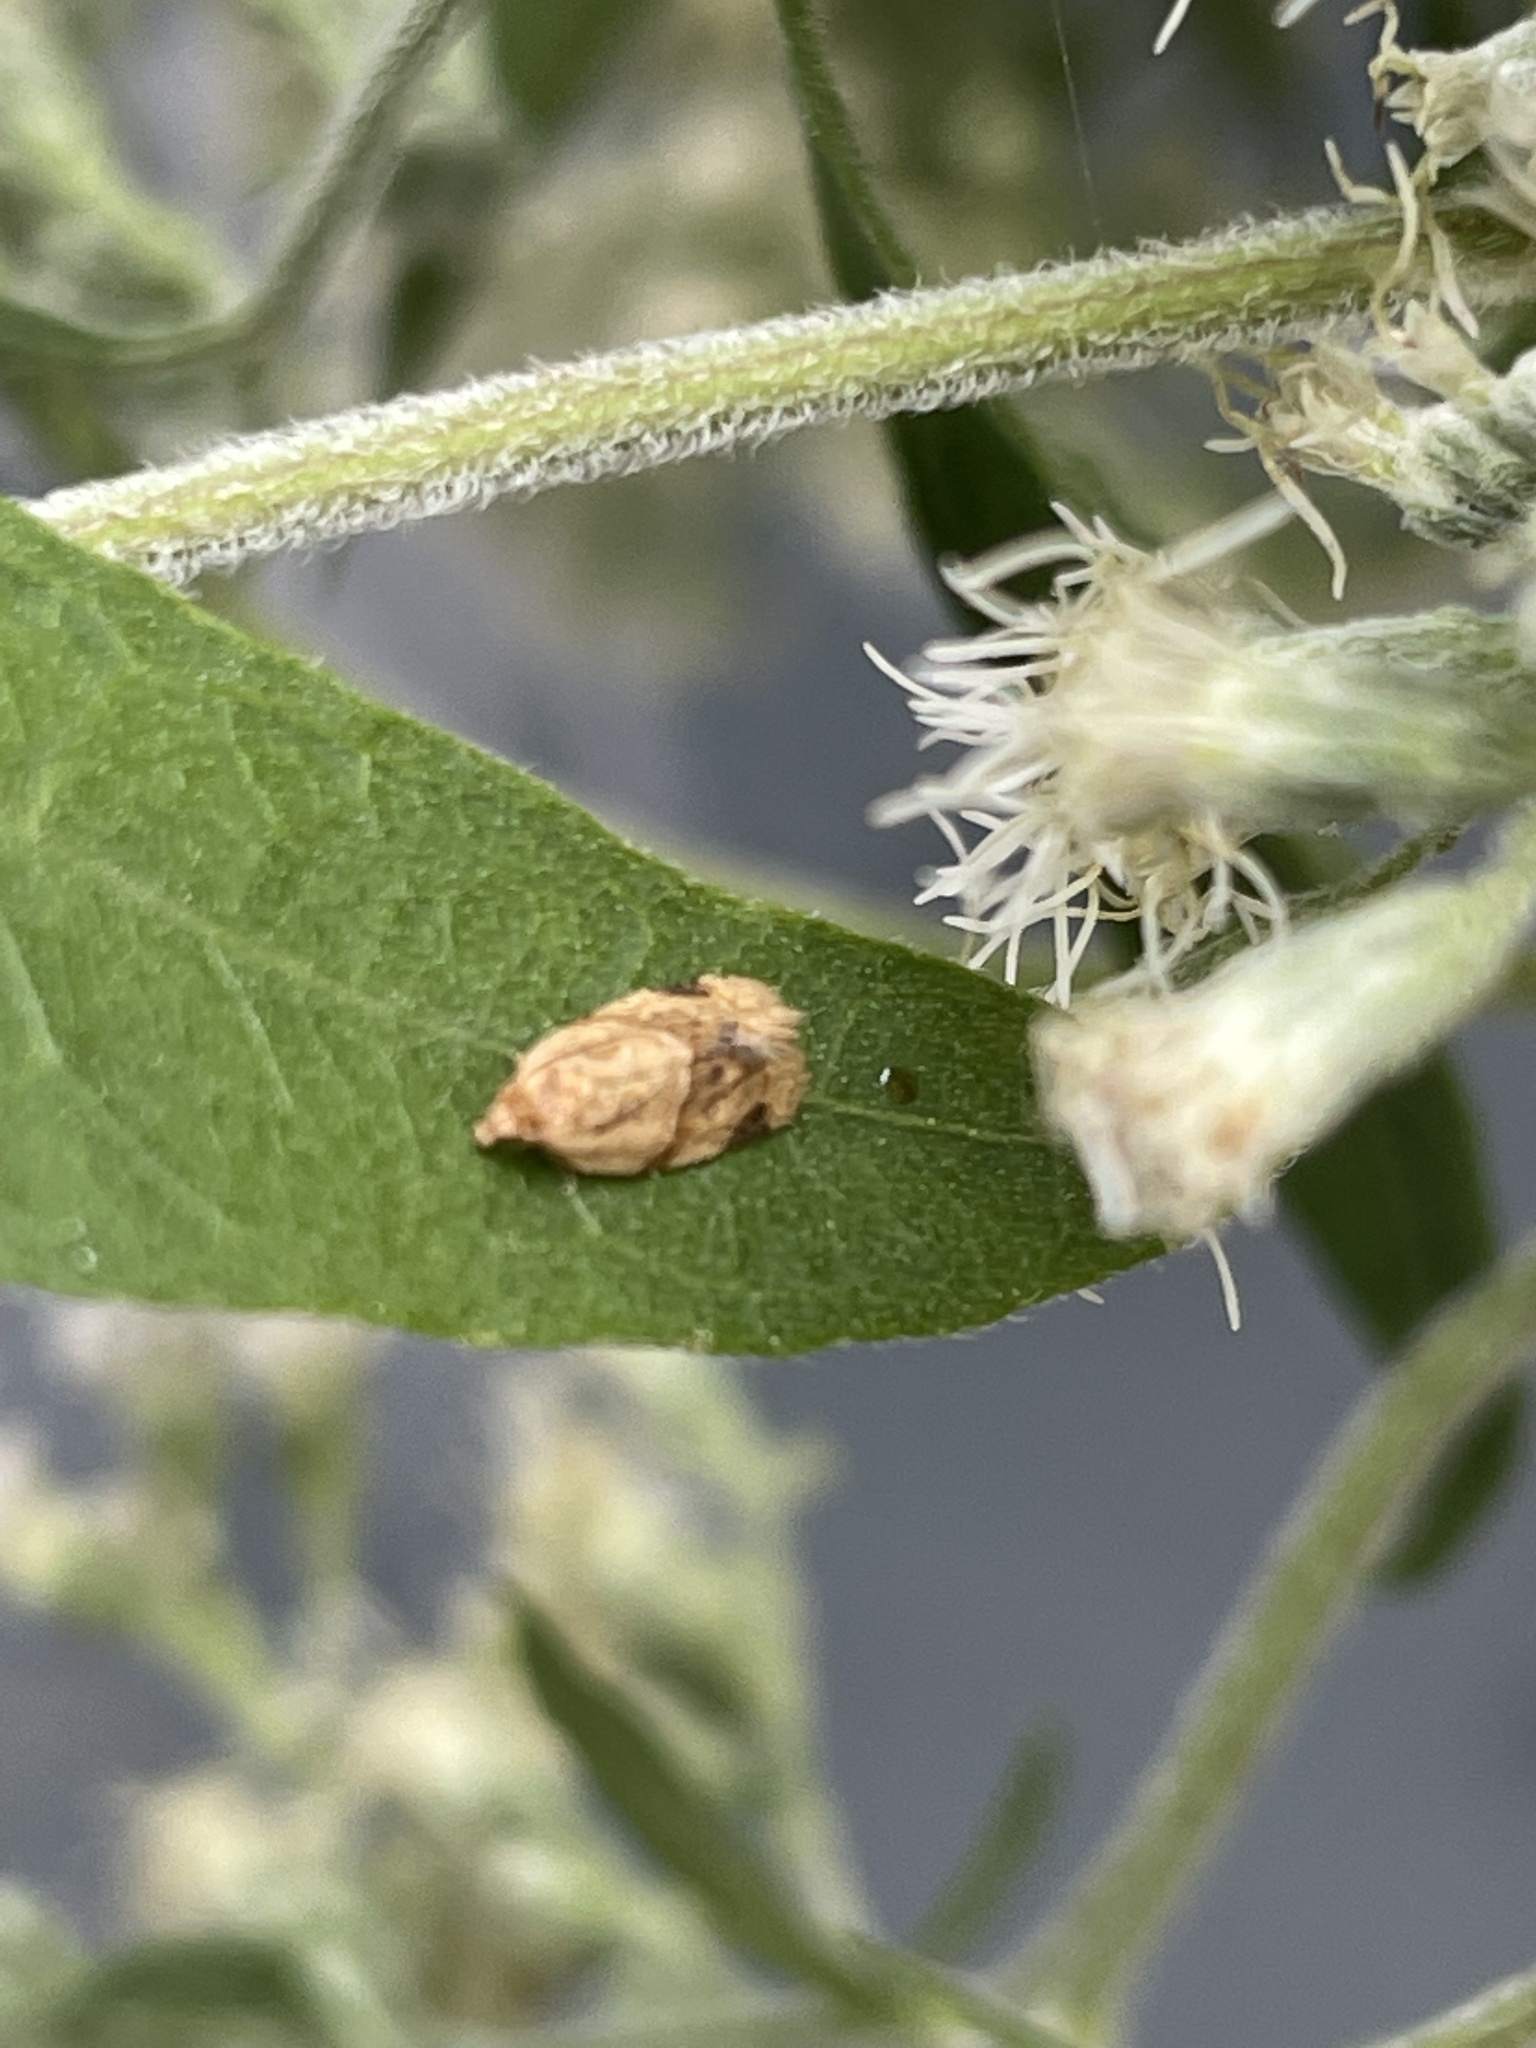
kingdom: Animalia
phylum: Arthropoda
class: Insecta
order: Lepidoptera
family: Tortricidae
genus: Clepsis
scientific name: Clepsis peritana
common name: Garden tortrix
